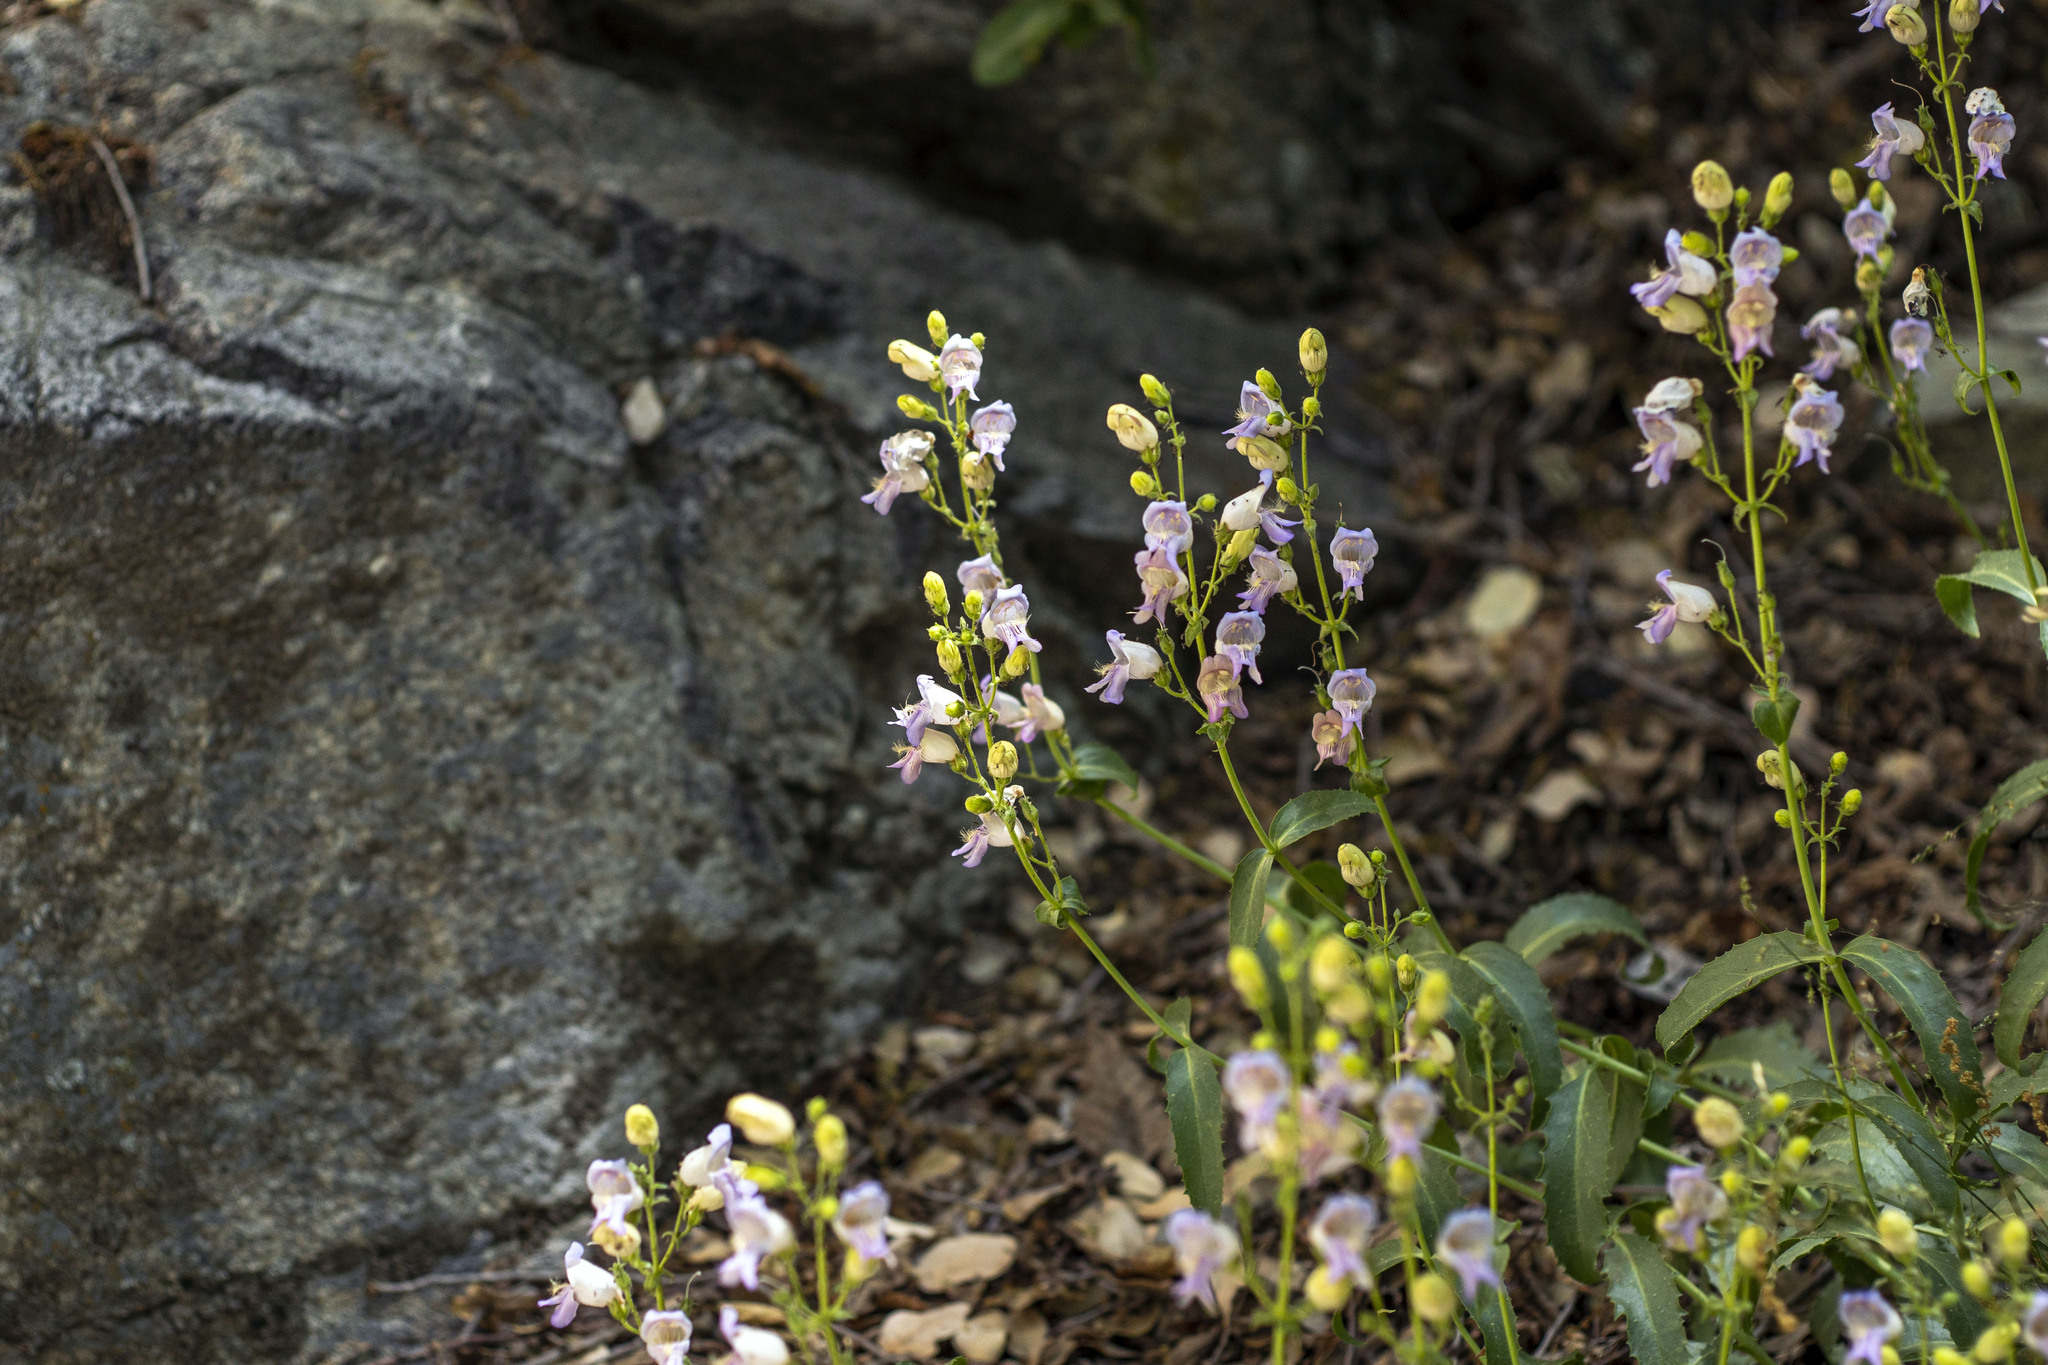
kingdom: Plantae
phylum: Tracheophyta
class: Magnoliopsida
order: Lamiales
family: Plantaginaceae
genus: Penstemon
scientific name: Penstemon grinnellii
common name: Grinnell's beardtongue
